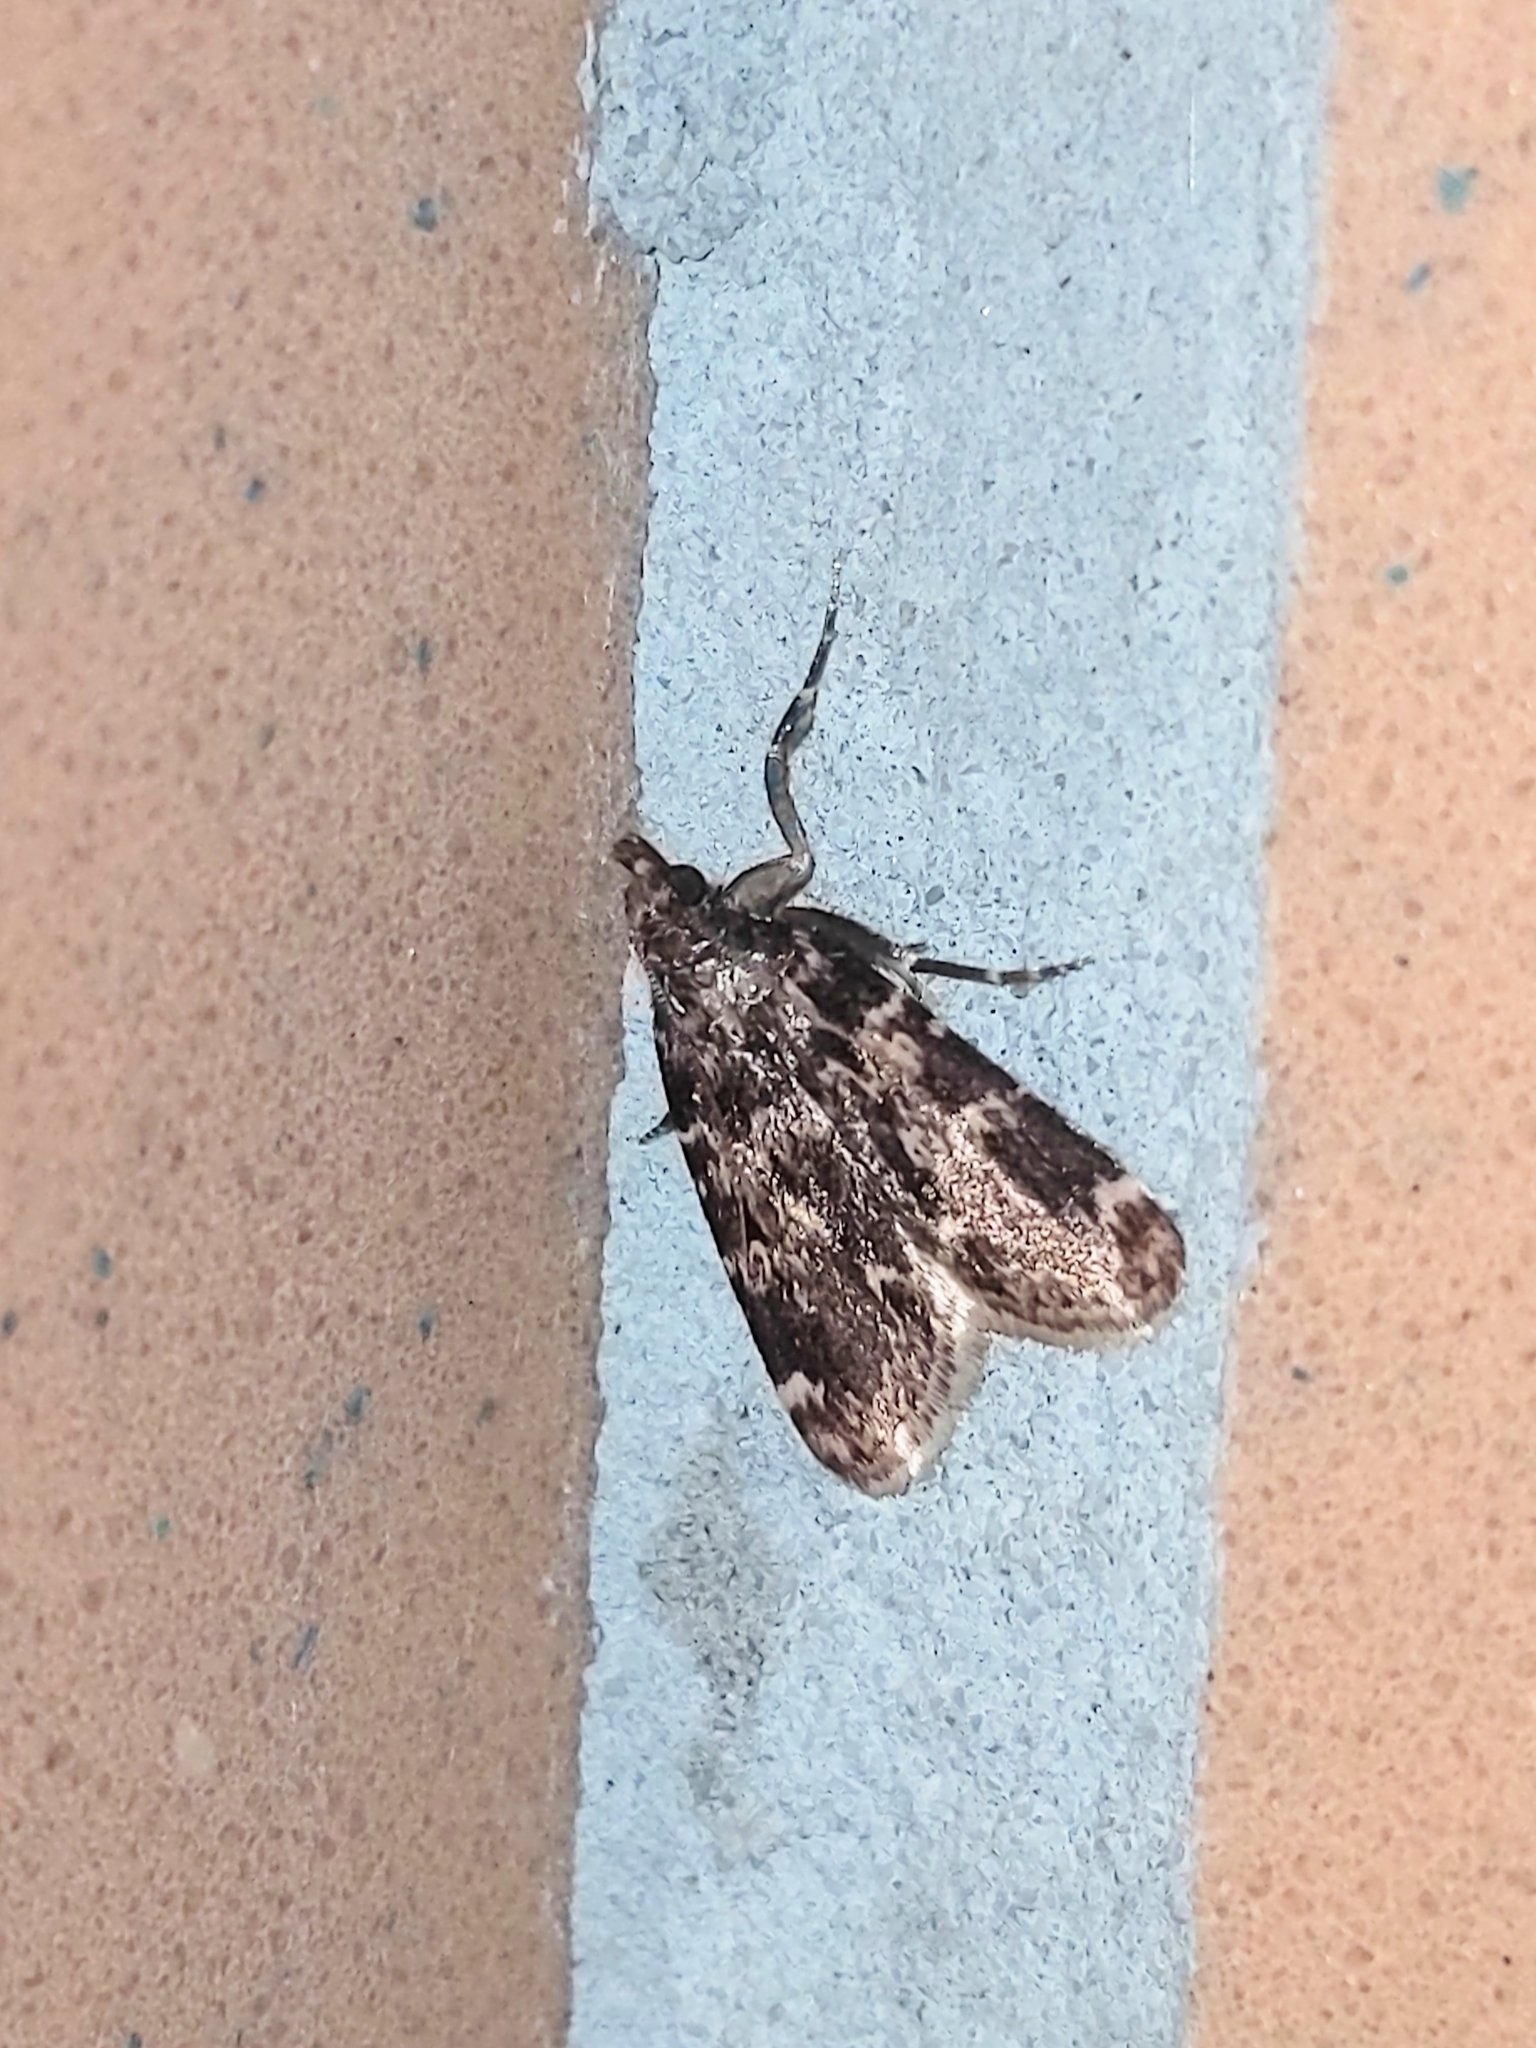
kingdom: Animalia
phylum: Arthropoda
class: Insecta
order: Lepidoptera
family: Pyralidae
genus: Aglossa
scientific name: Aglossa caprealis
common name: Small tabby
